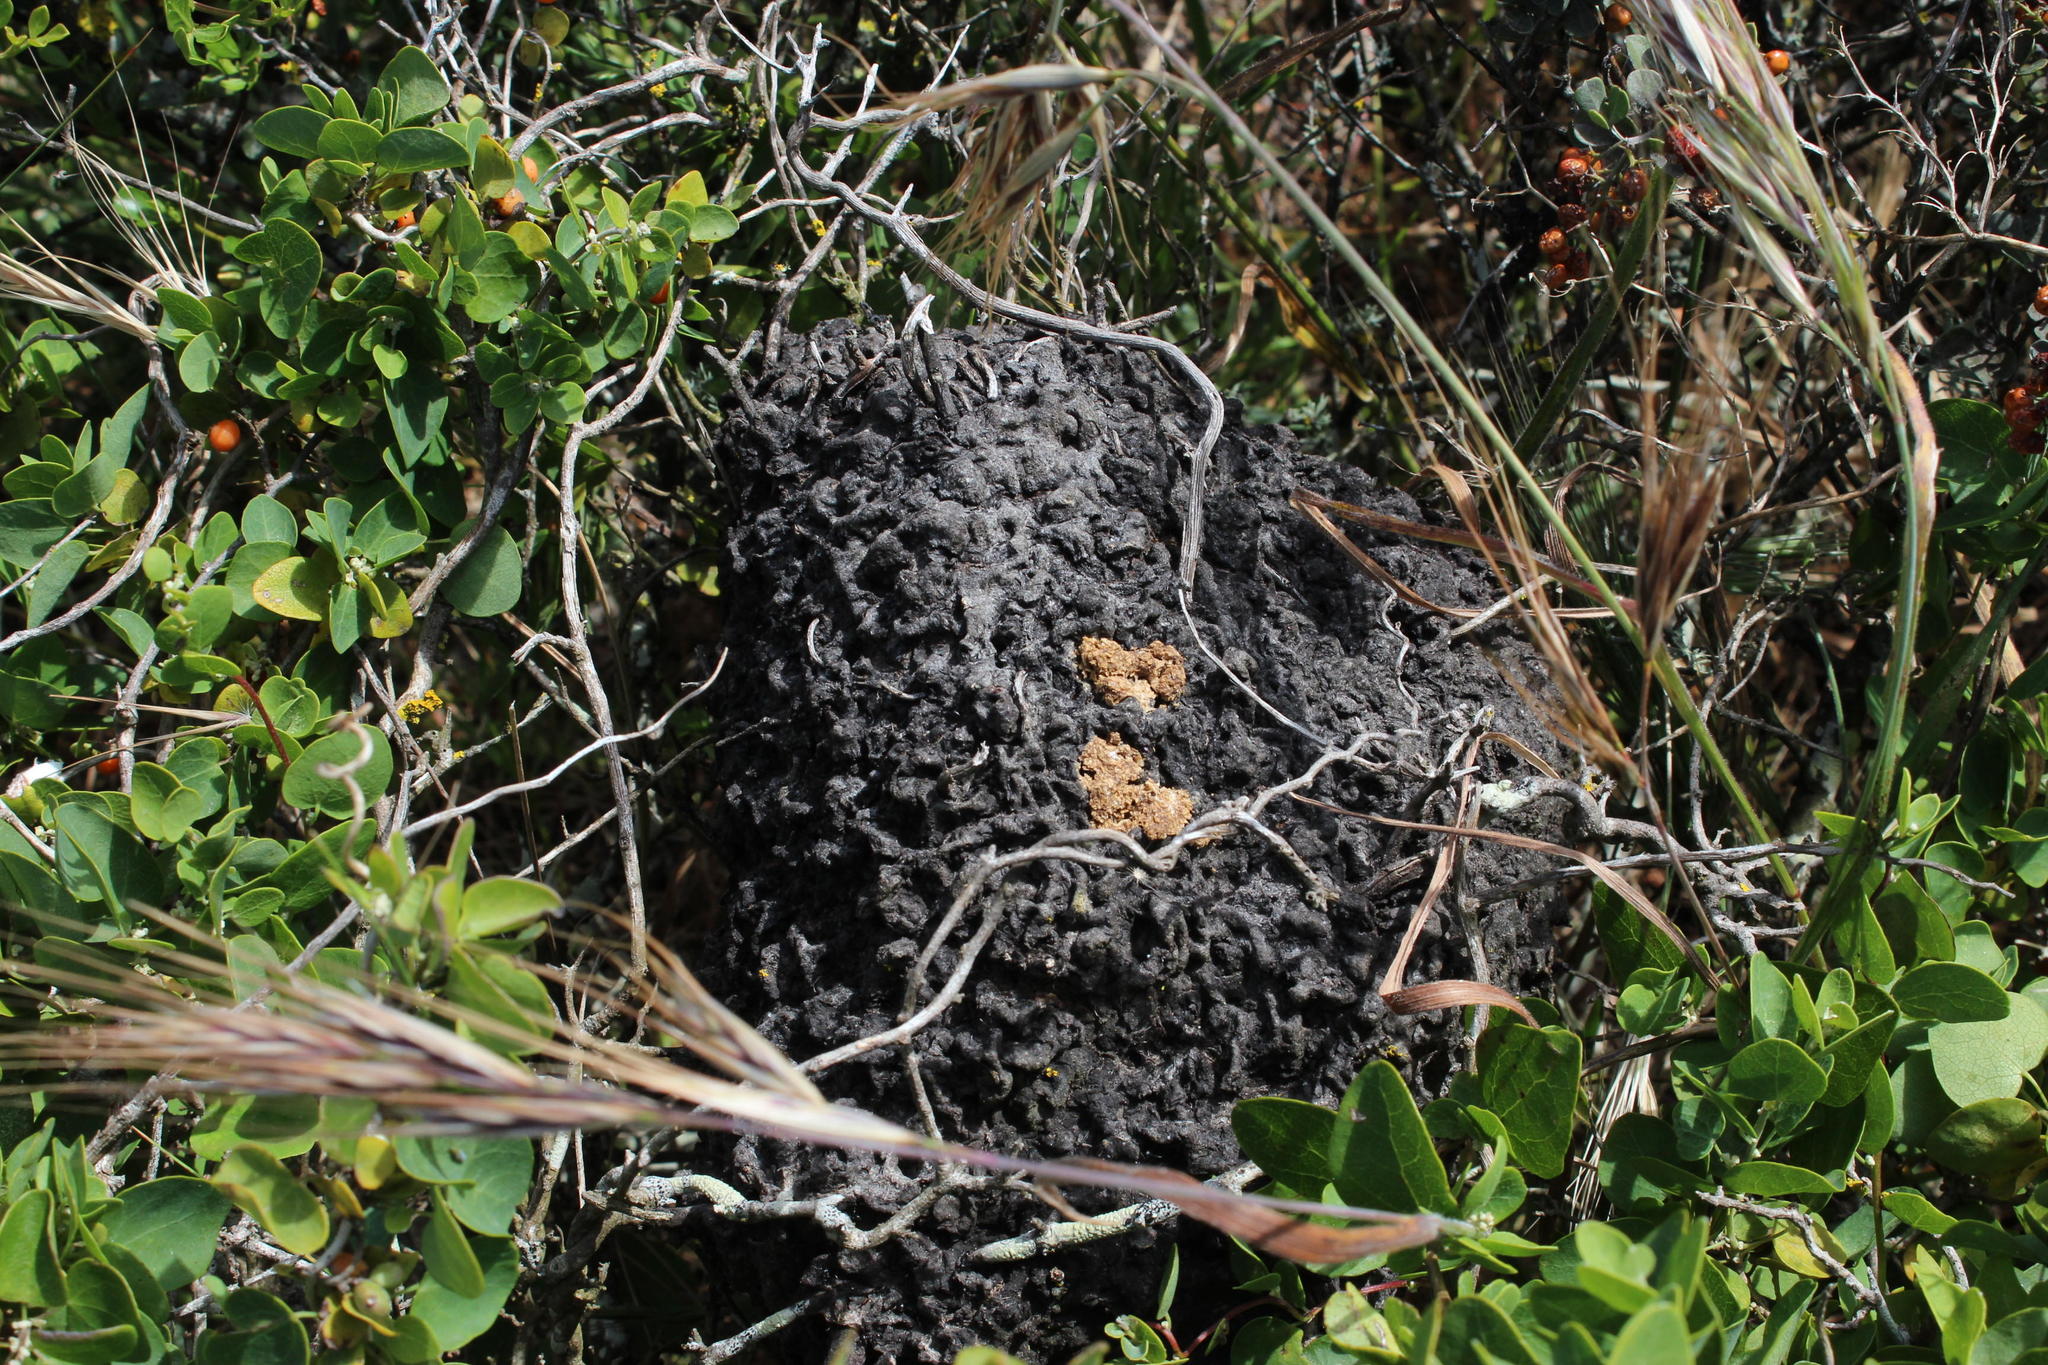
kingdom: Animalia
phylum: Arthropoda
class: Insecta
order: Hymenoptera
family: Formicidae
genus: Crematogaster
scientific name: Crematogaster peringueyi
